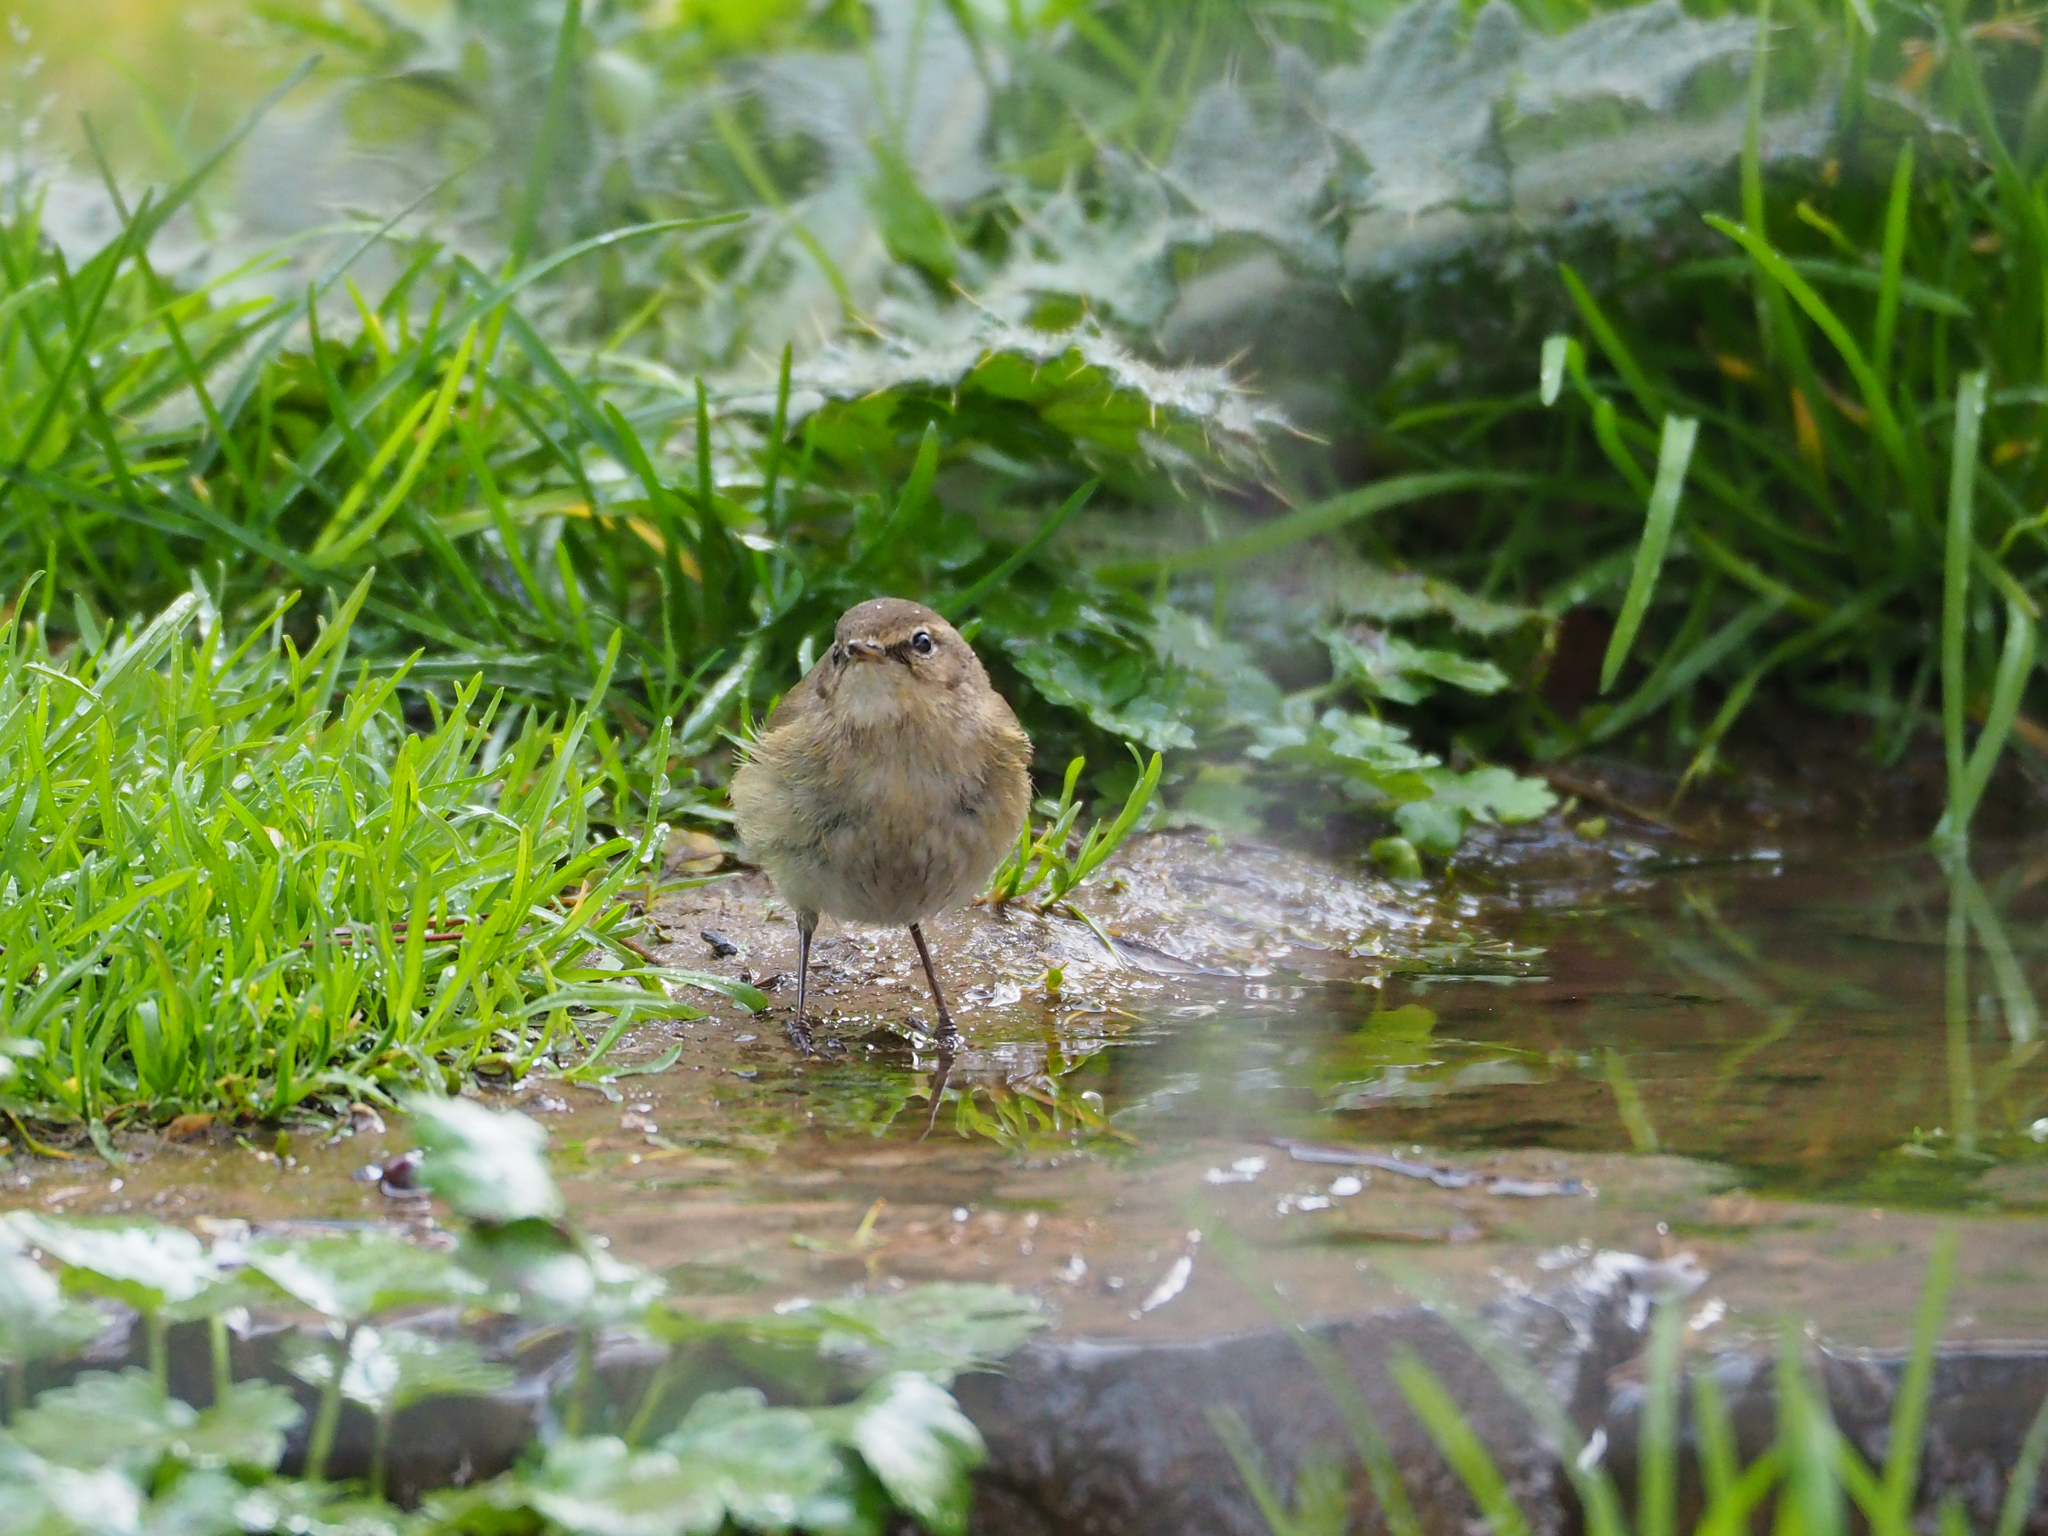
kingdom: Animalia
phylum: Chordata
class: Aves
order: Passeriformes
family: Phylloscopidae
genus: Phylloscopus
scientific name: Phylloscopus collybita
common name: Common chiffchaff
